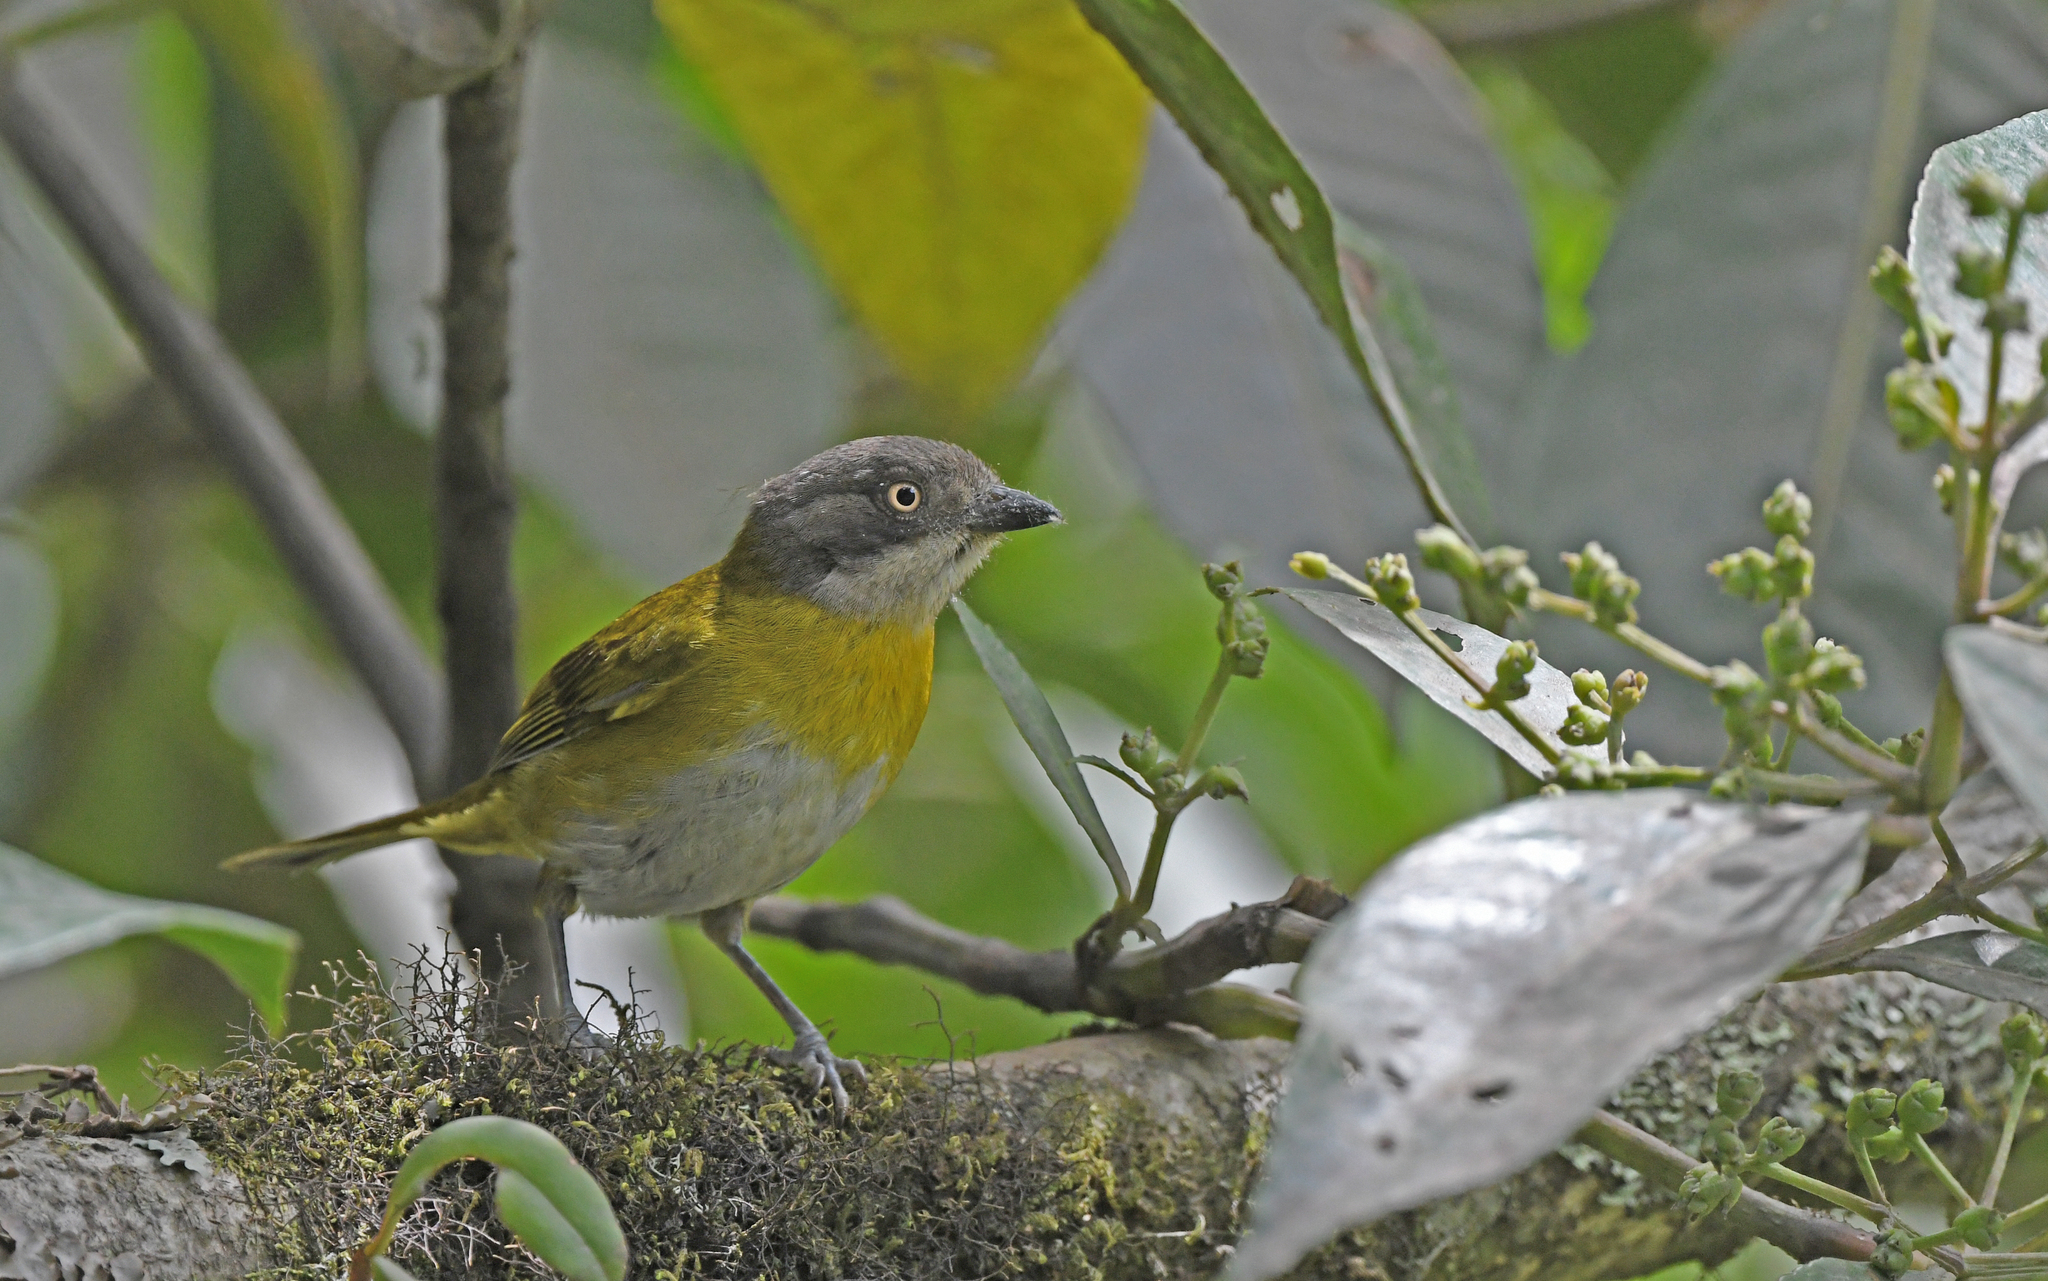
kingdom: Animalia
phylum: Chordata
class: Aves
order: Passeriformes
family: Passerellidae
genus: Chlorospingus
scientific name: Chlorospingus flavopectus
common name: Common chlorospingus
